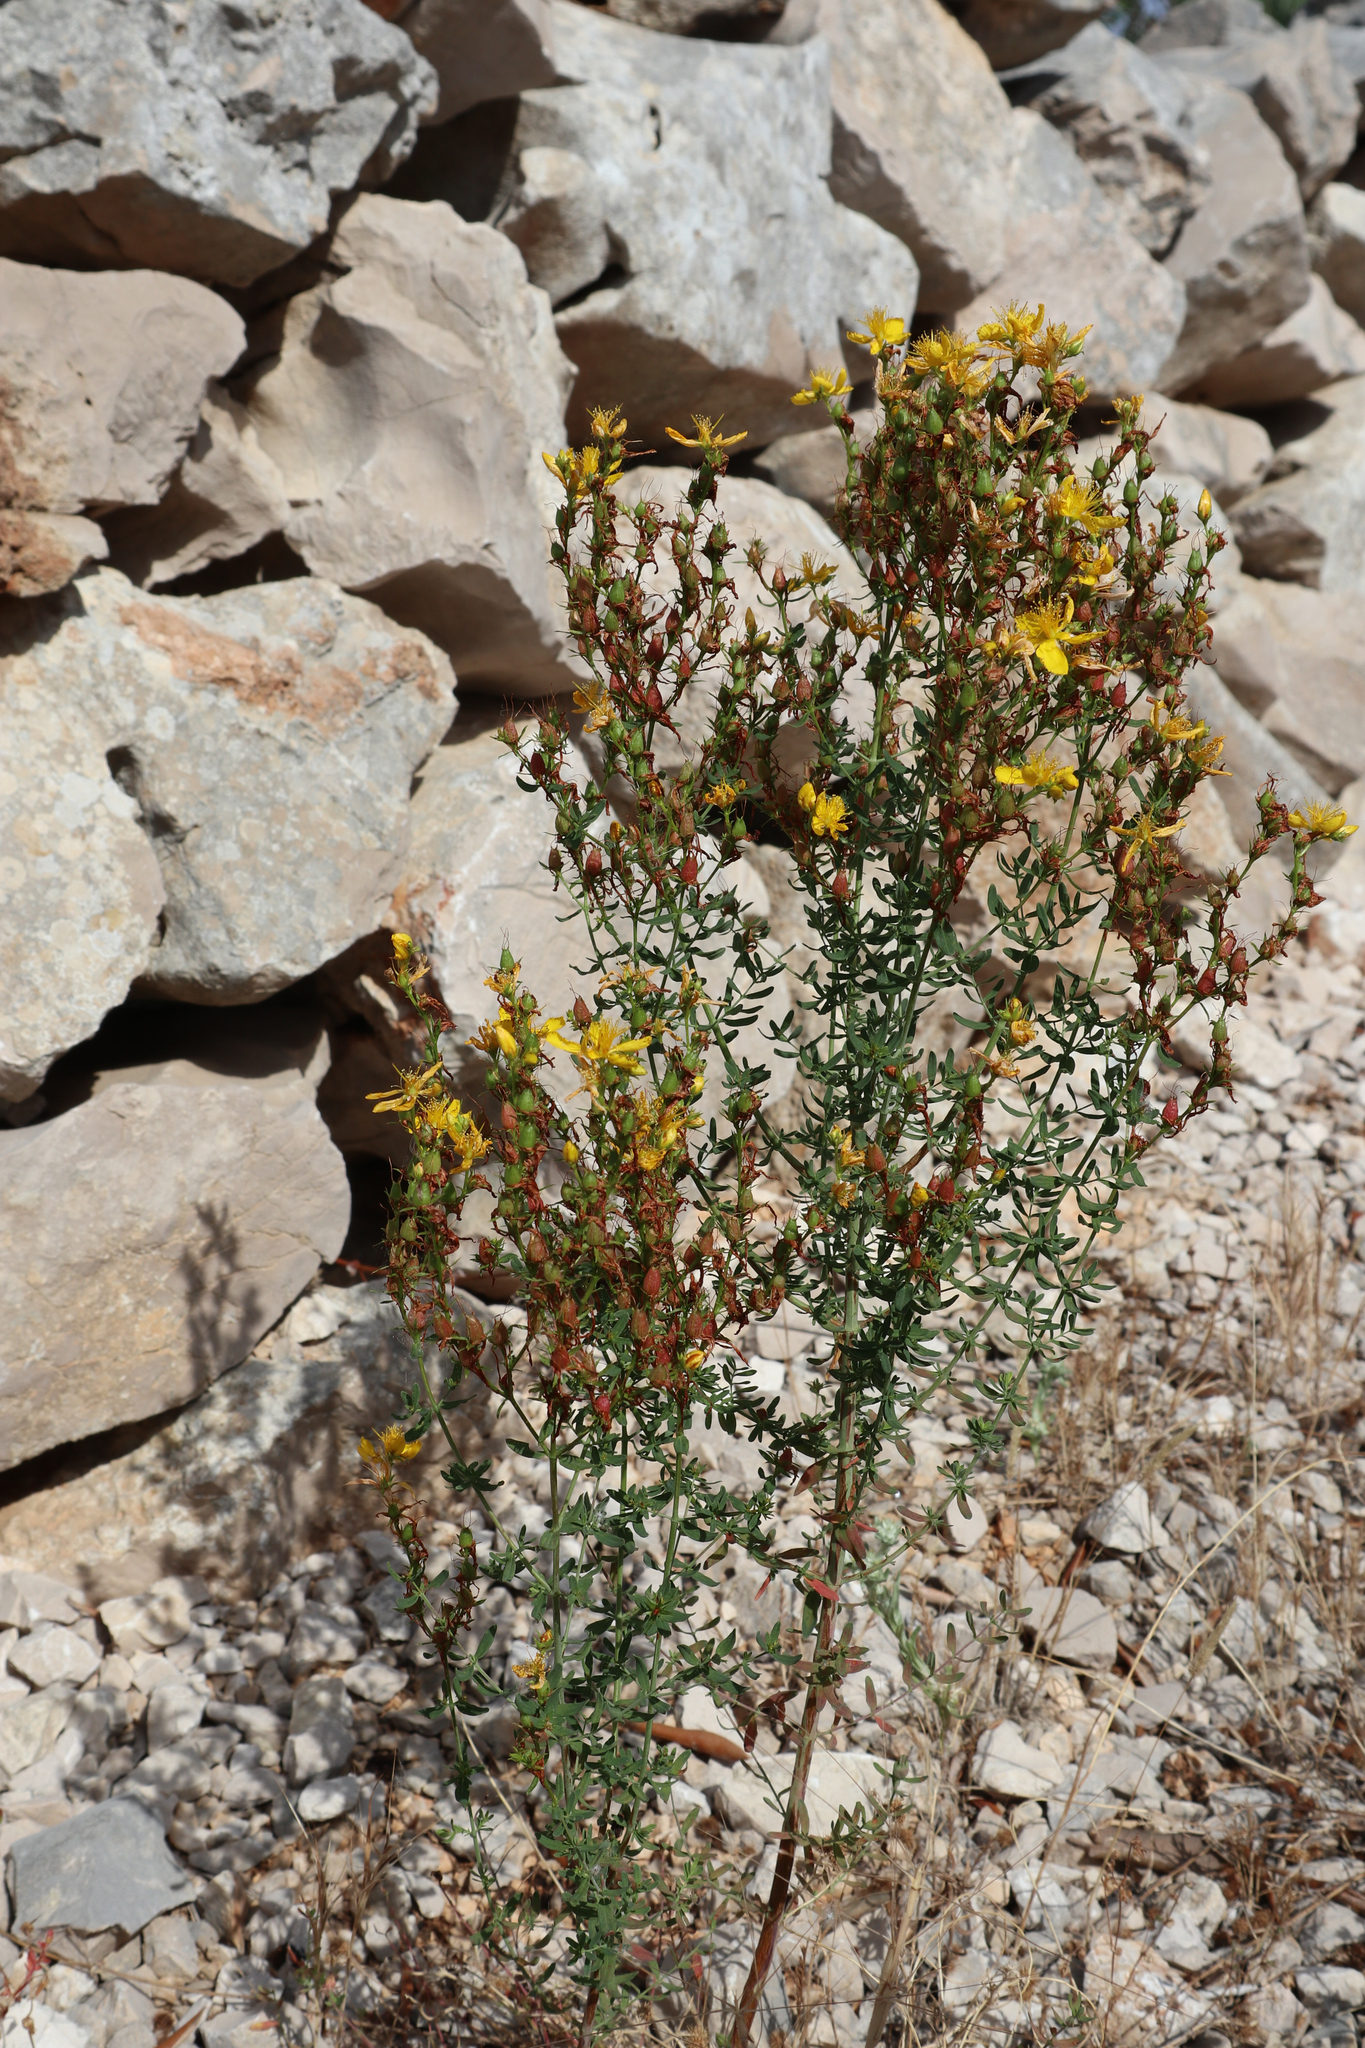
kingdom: Plantae
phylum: Tracheophyta
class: Magnoliopsida
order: Malpighiales
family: Hypericaceae
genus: Hypericum
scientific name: Hypericum perforatum
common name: Common st. johnswort
